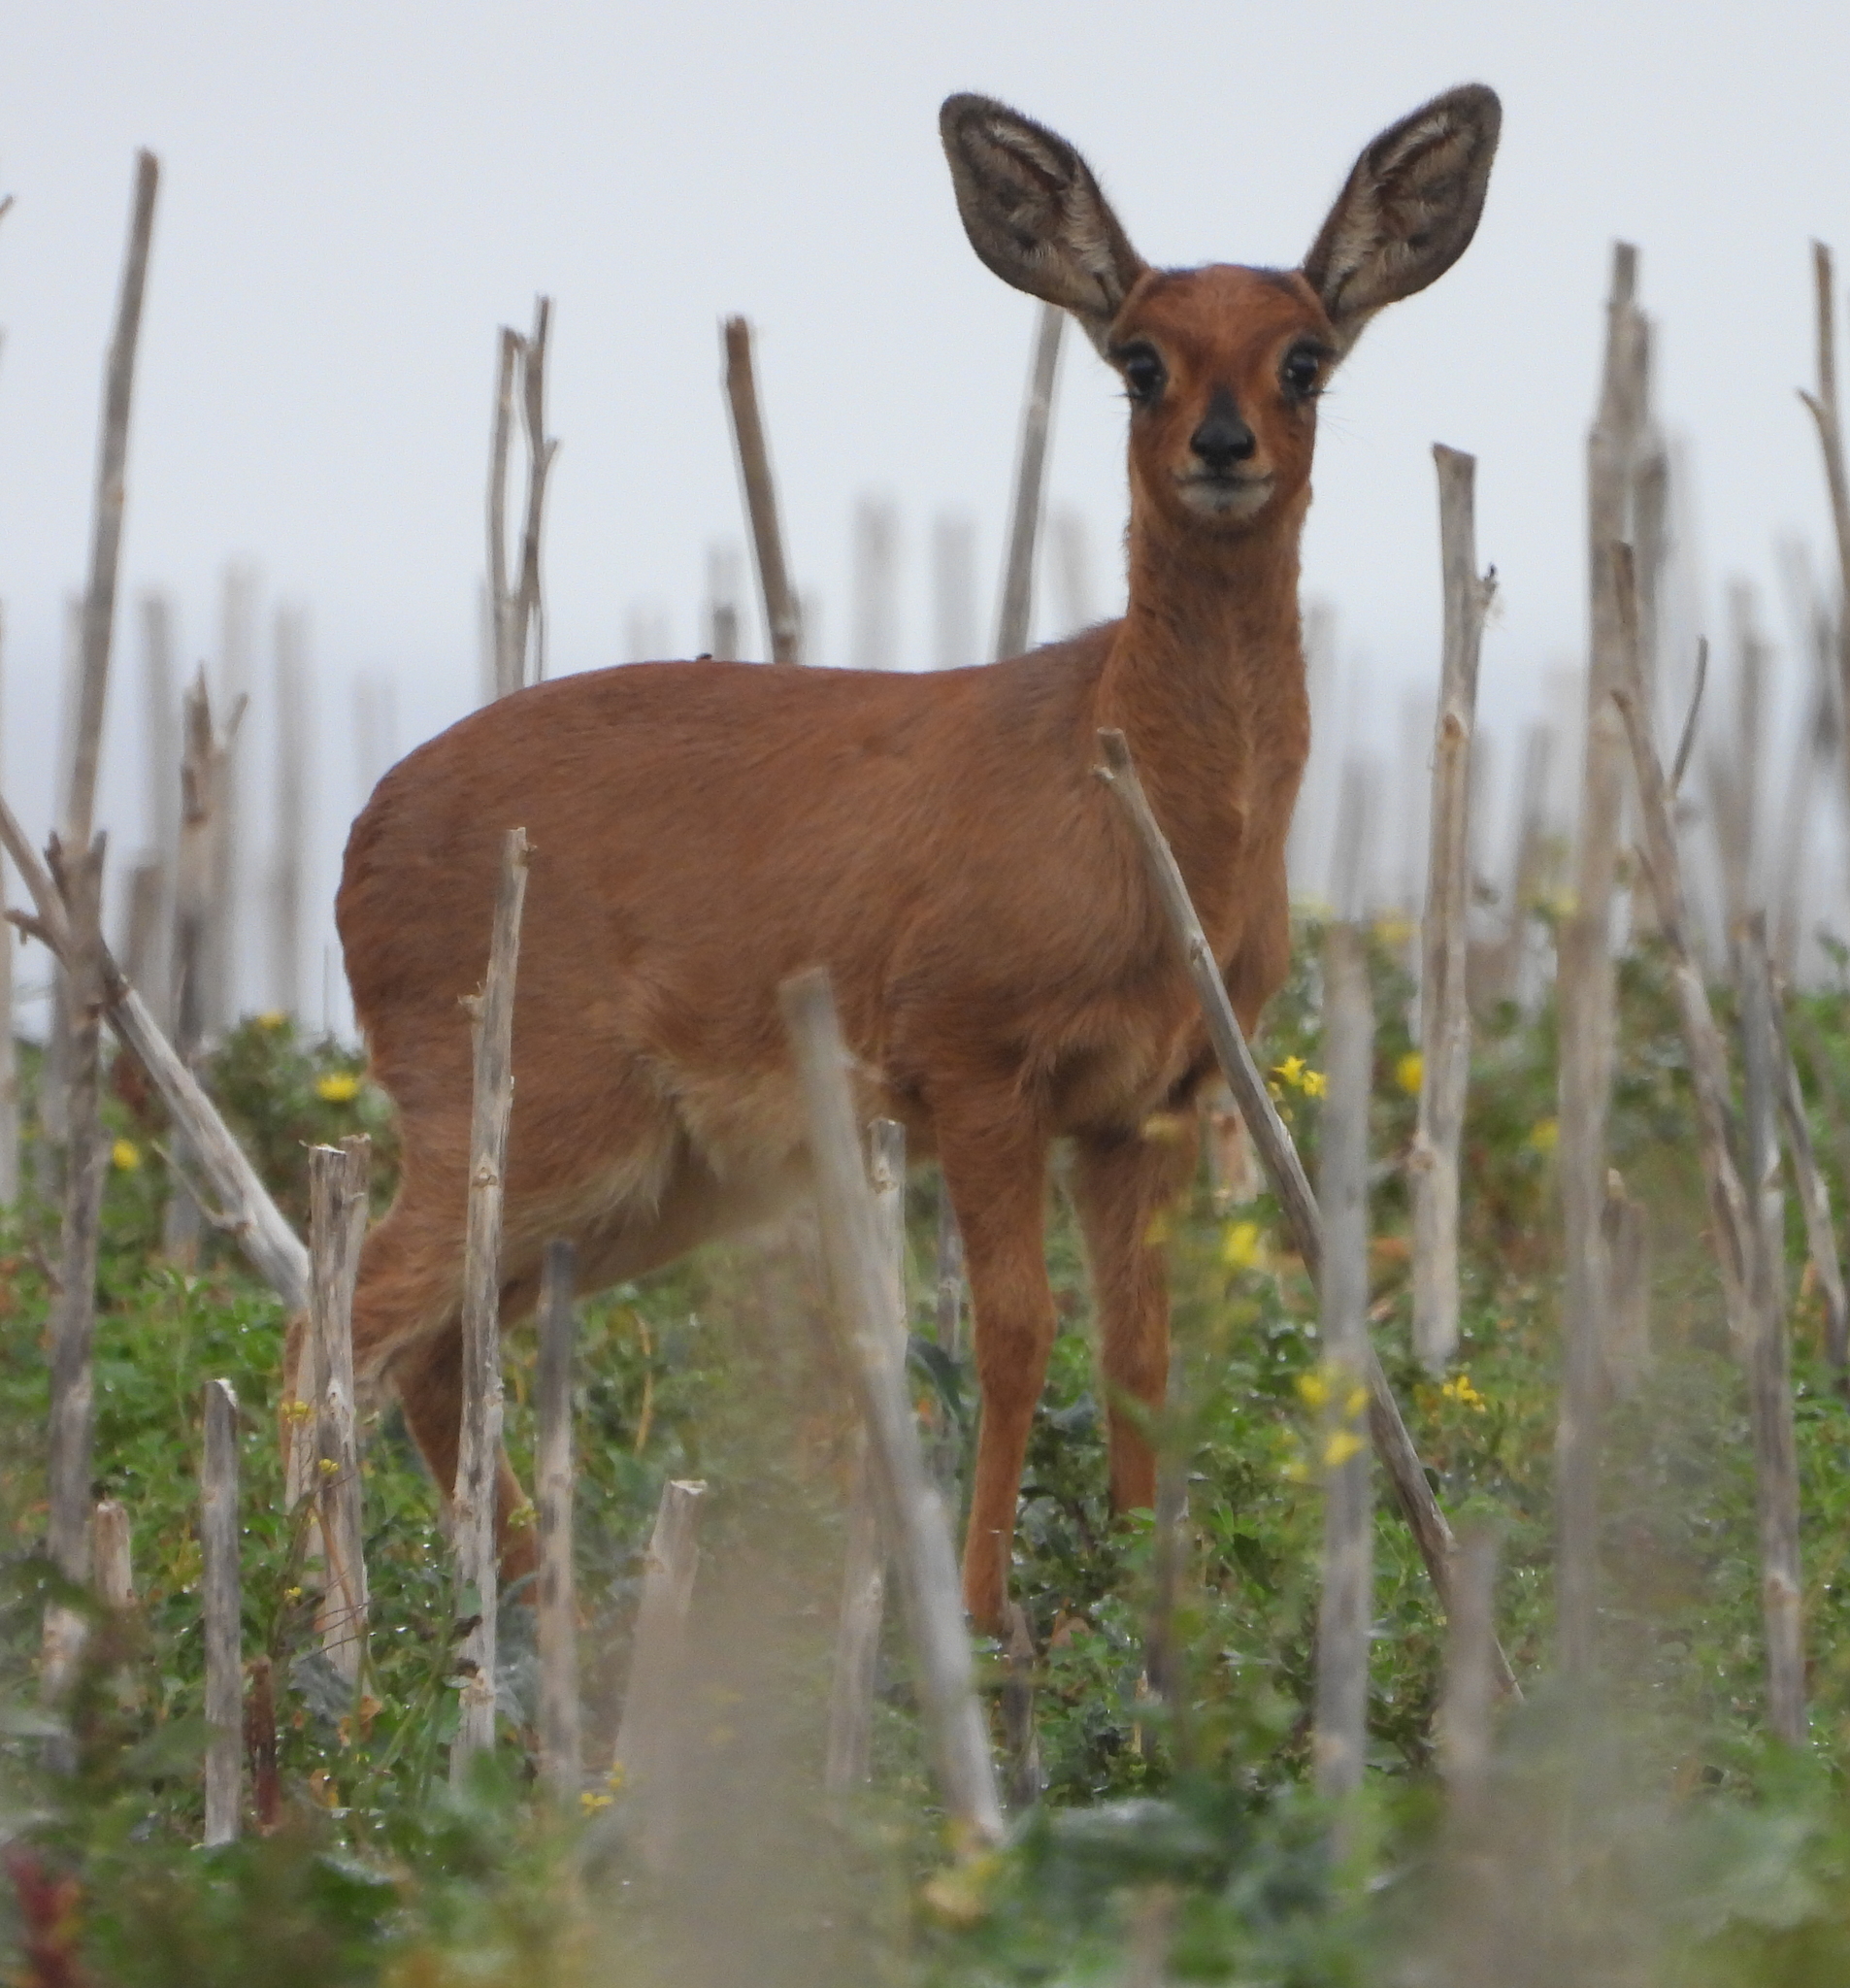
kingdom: Animalia
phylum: Chordata
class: Mammalia
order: Artiodactyla
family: Bovidae
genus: Raphicerus
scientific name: Raphicerus campestris
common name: Steenbok
